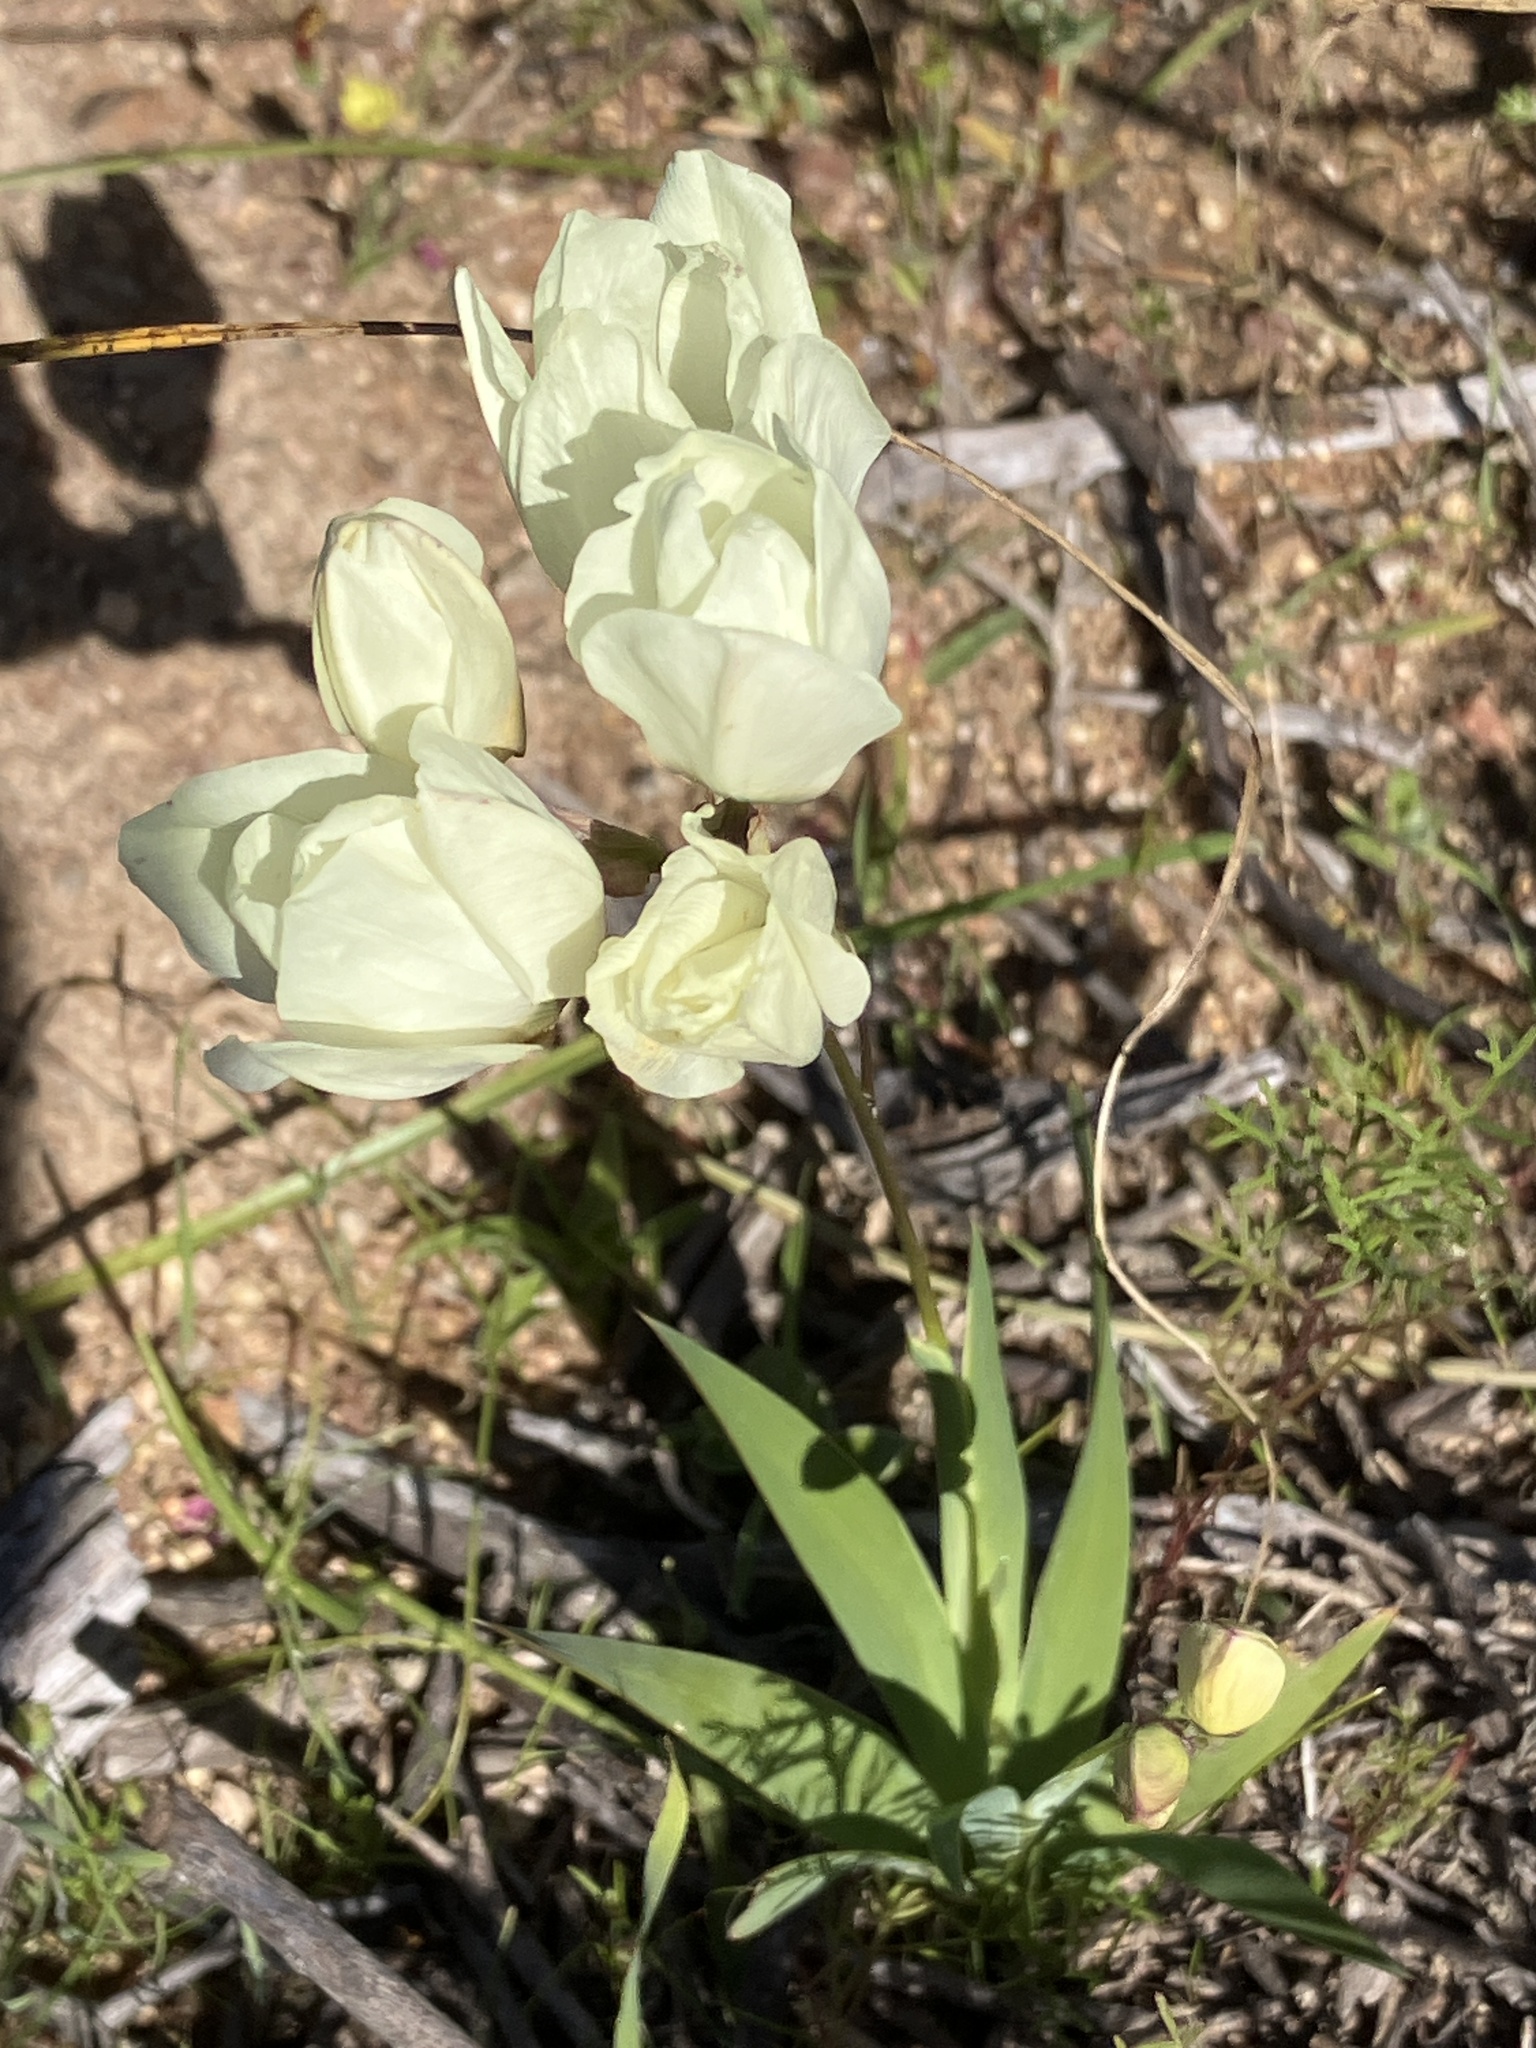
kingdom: Plantae
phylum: Tracheophyta
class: Liliopsida
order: Asparagales
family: Iridaceae
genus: Ixia
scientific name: Ixia abbreviata
